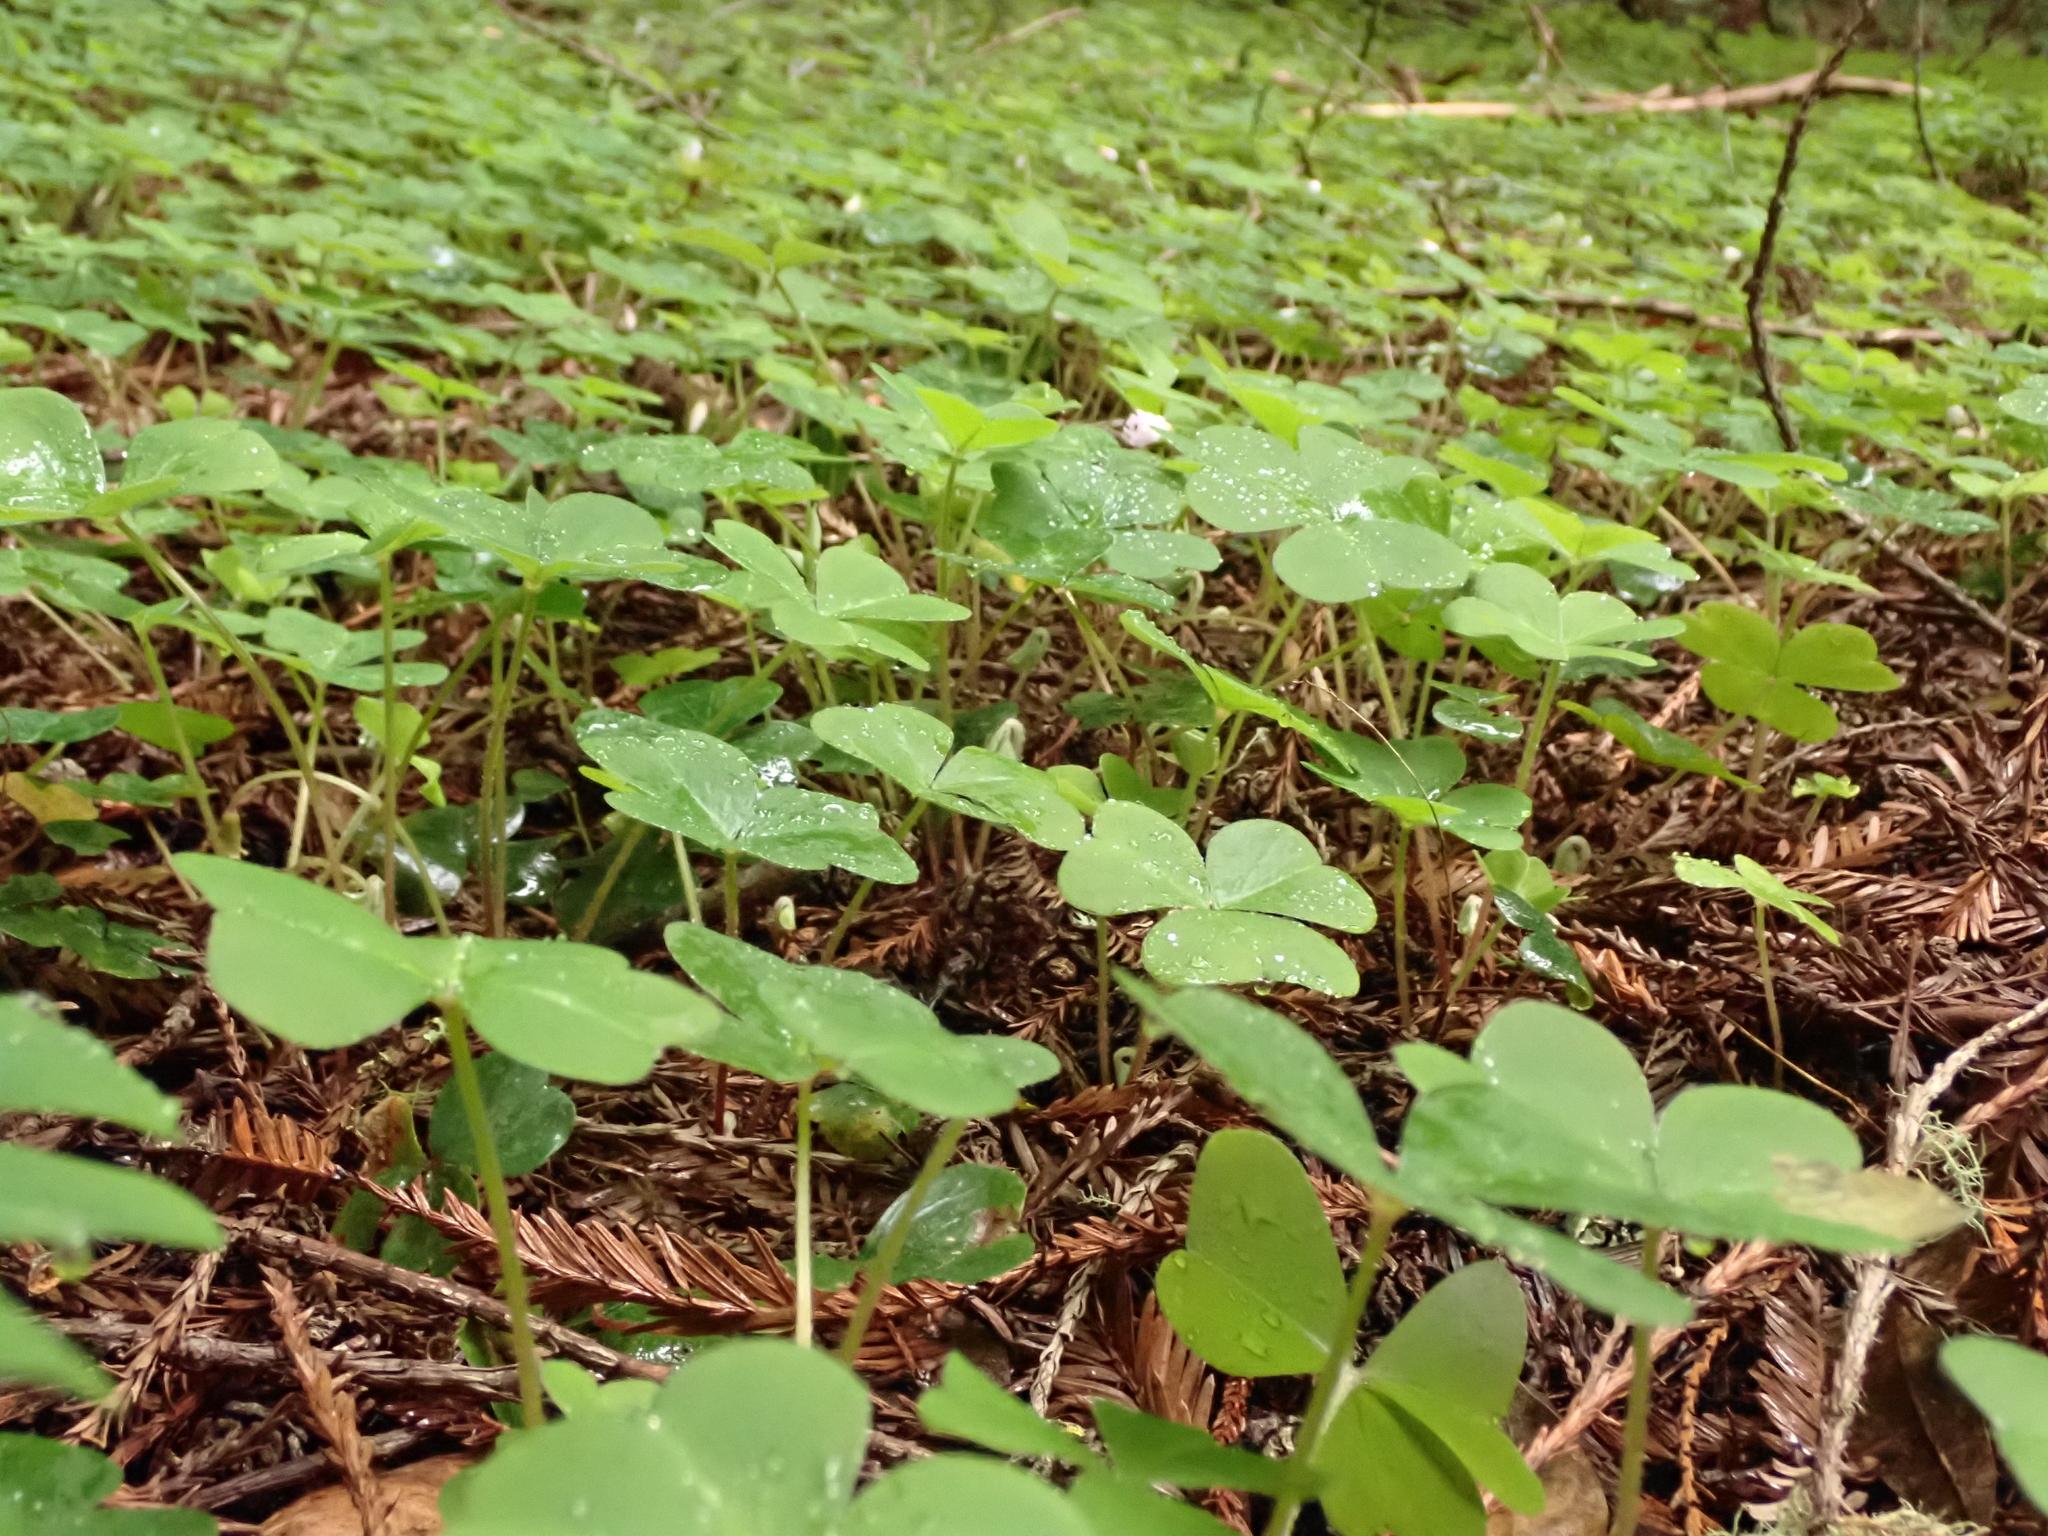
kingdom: Plantae
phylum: Tracheophyta
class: Magnoliopsida
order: Oxalidales
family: Oxalidaceae
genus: Oxalis
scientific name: Oxalis oregana
